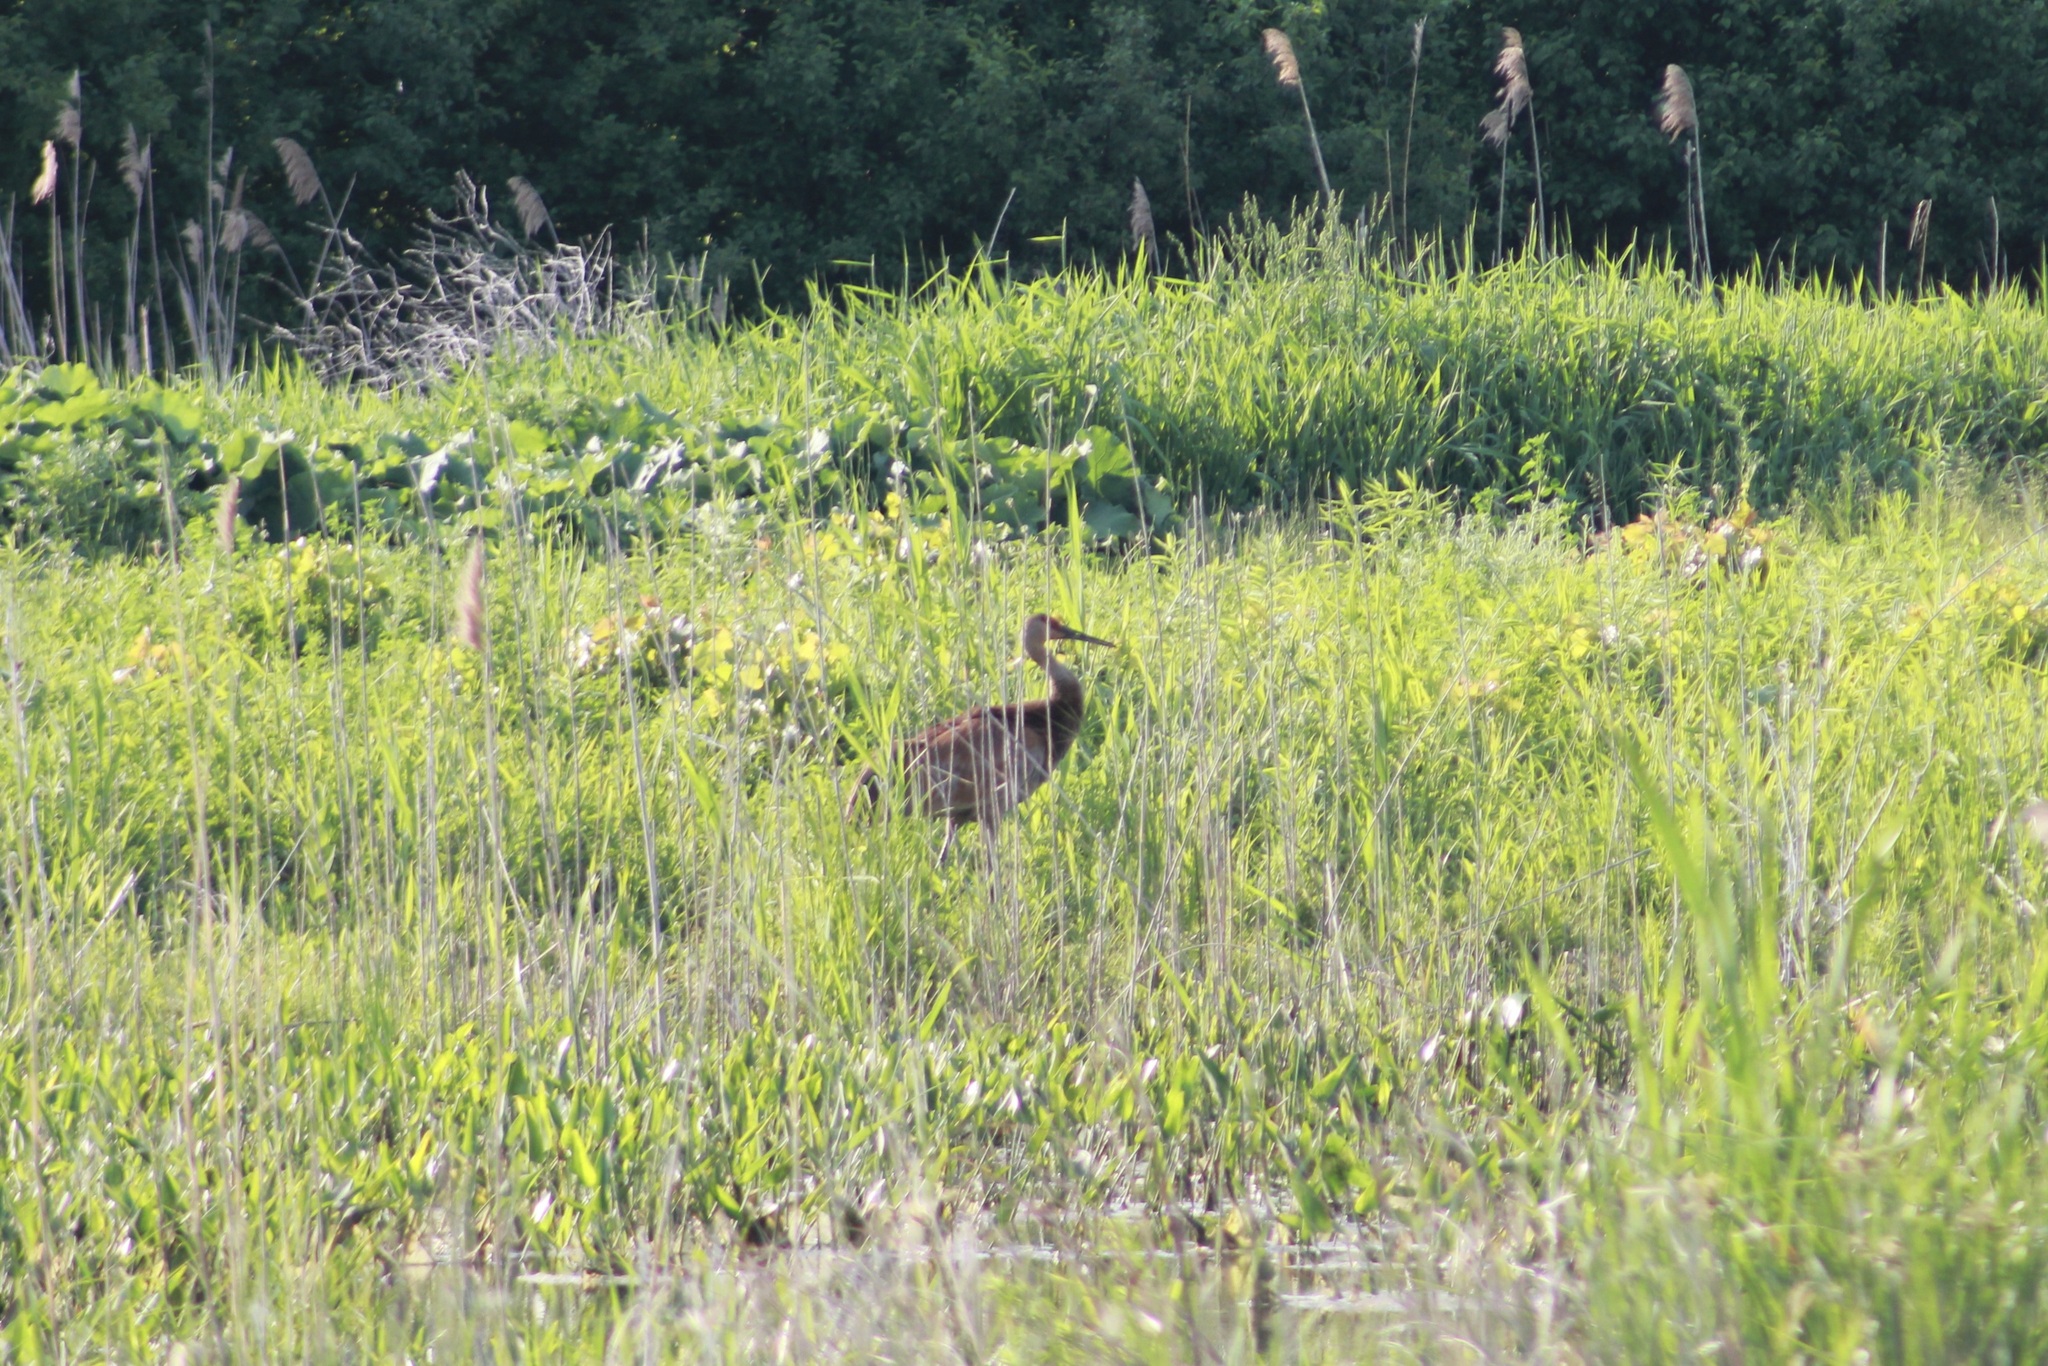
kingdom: Animalia
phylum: Chordata
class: Aves
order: Gruiformes
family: Gruidae
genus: Grus
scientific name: Grus canadensis
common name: Sandhill crane
